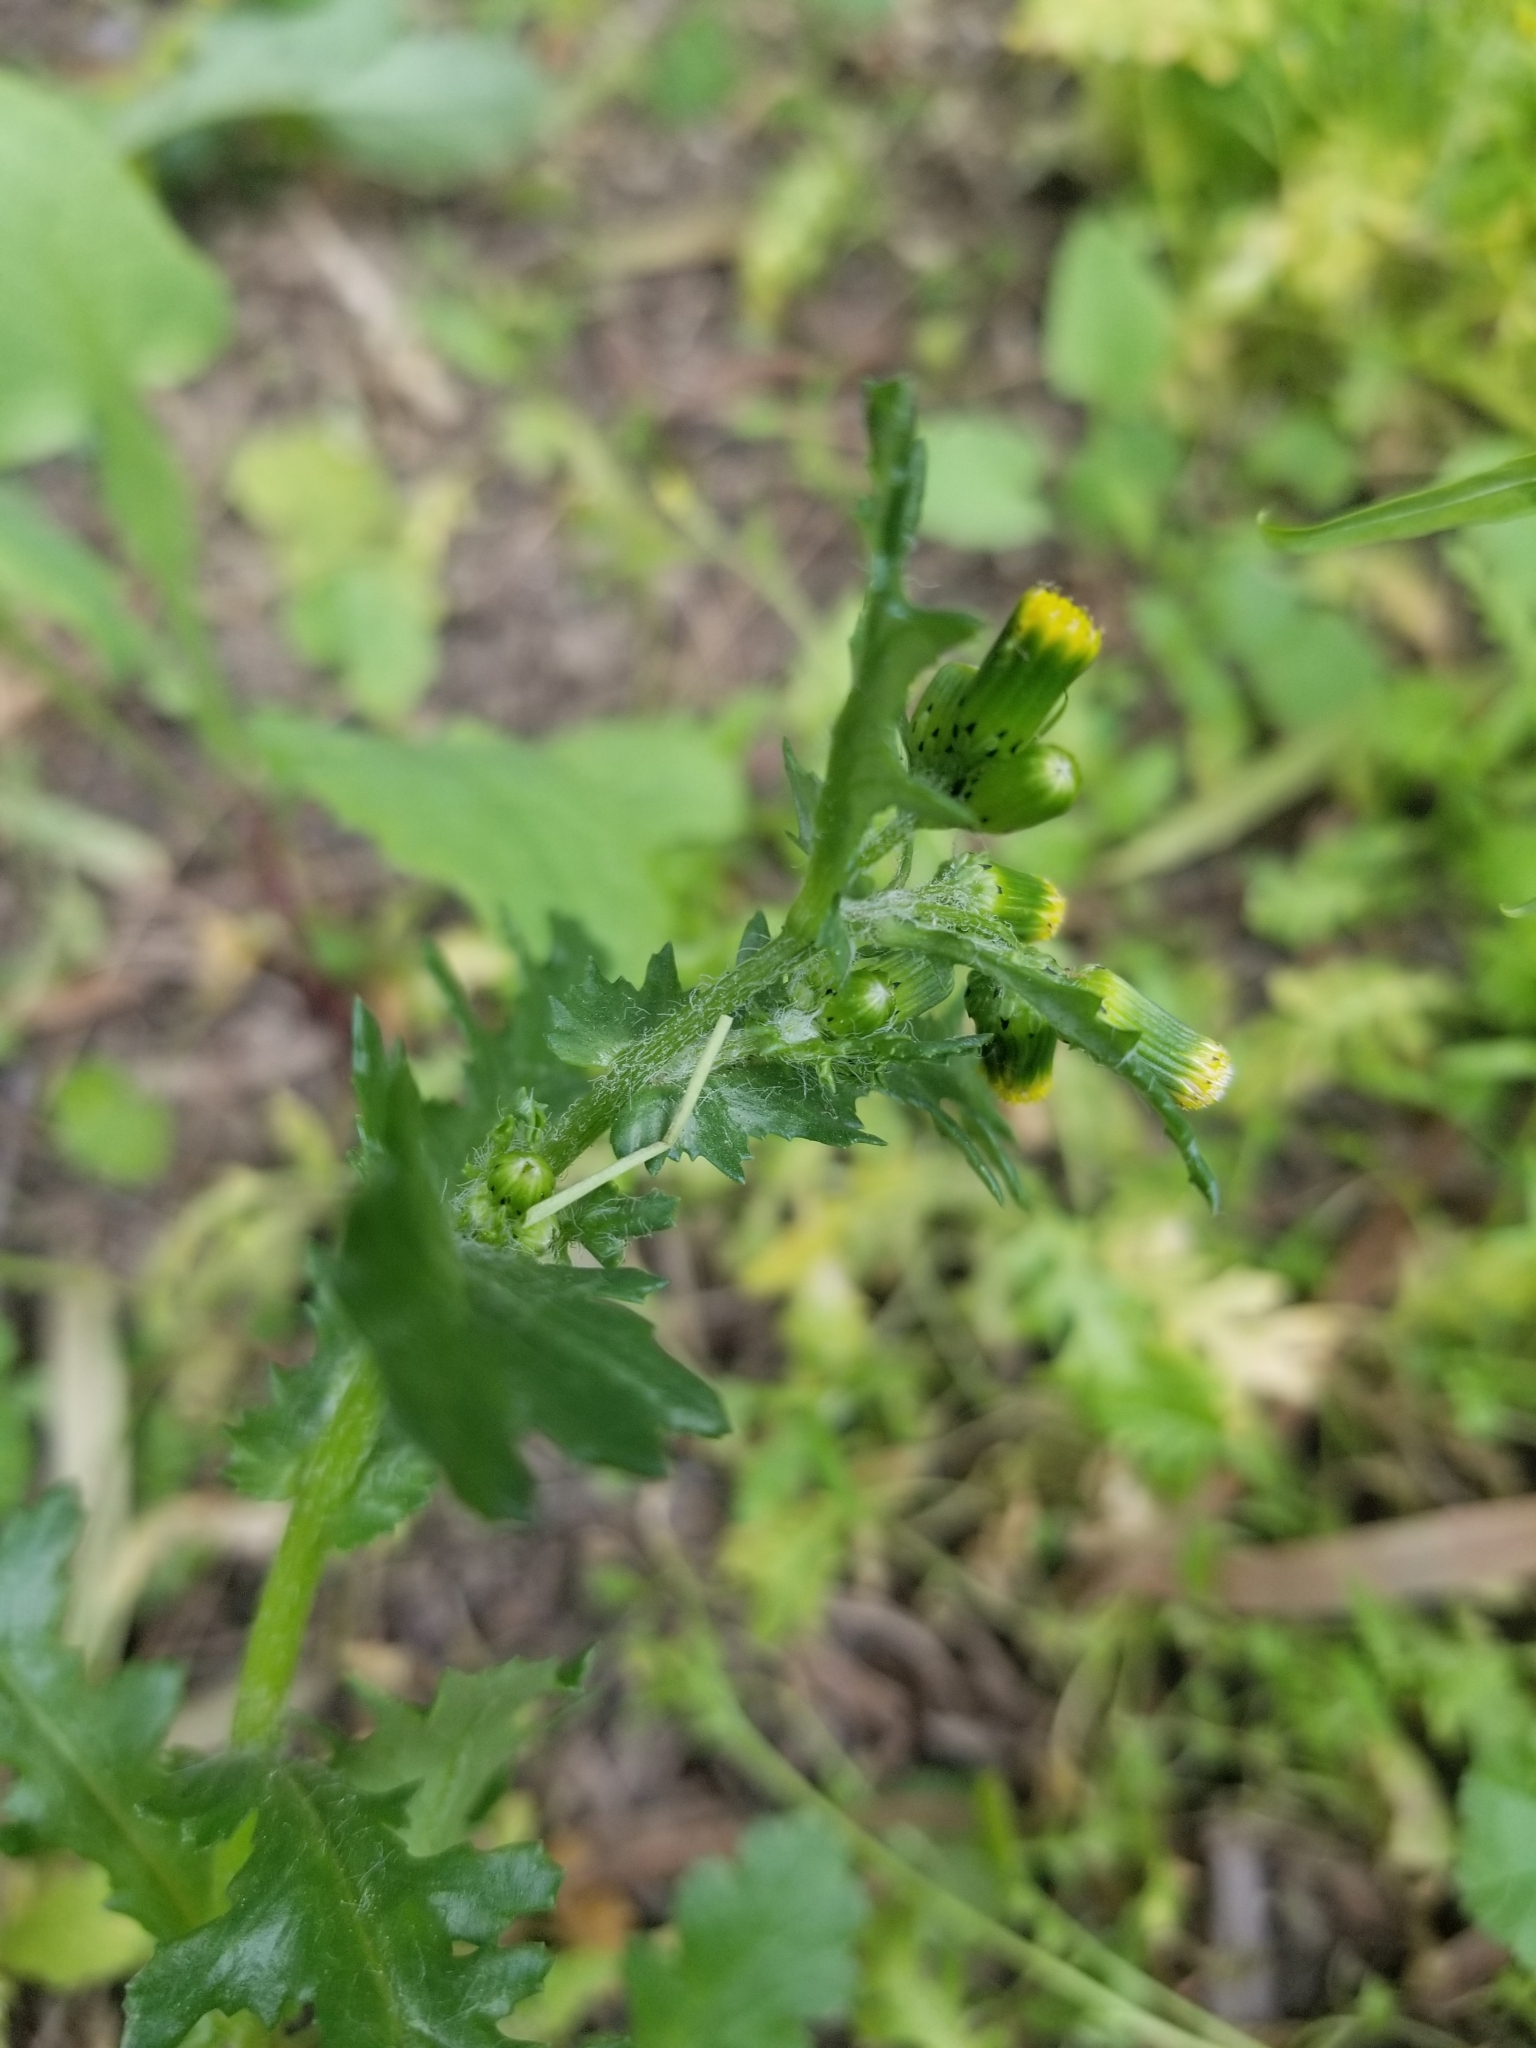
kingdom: Plantae
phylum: Tracheophyta
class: Magnoliopsida
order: Asterales
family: Asteraceae
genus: Senecio
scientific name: Senecio vulgaris
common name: Old-man-in-the-spring
